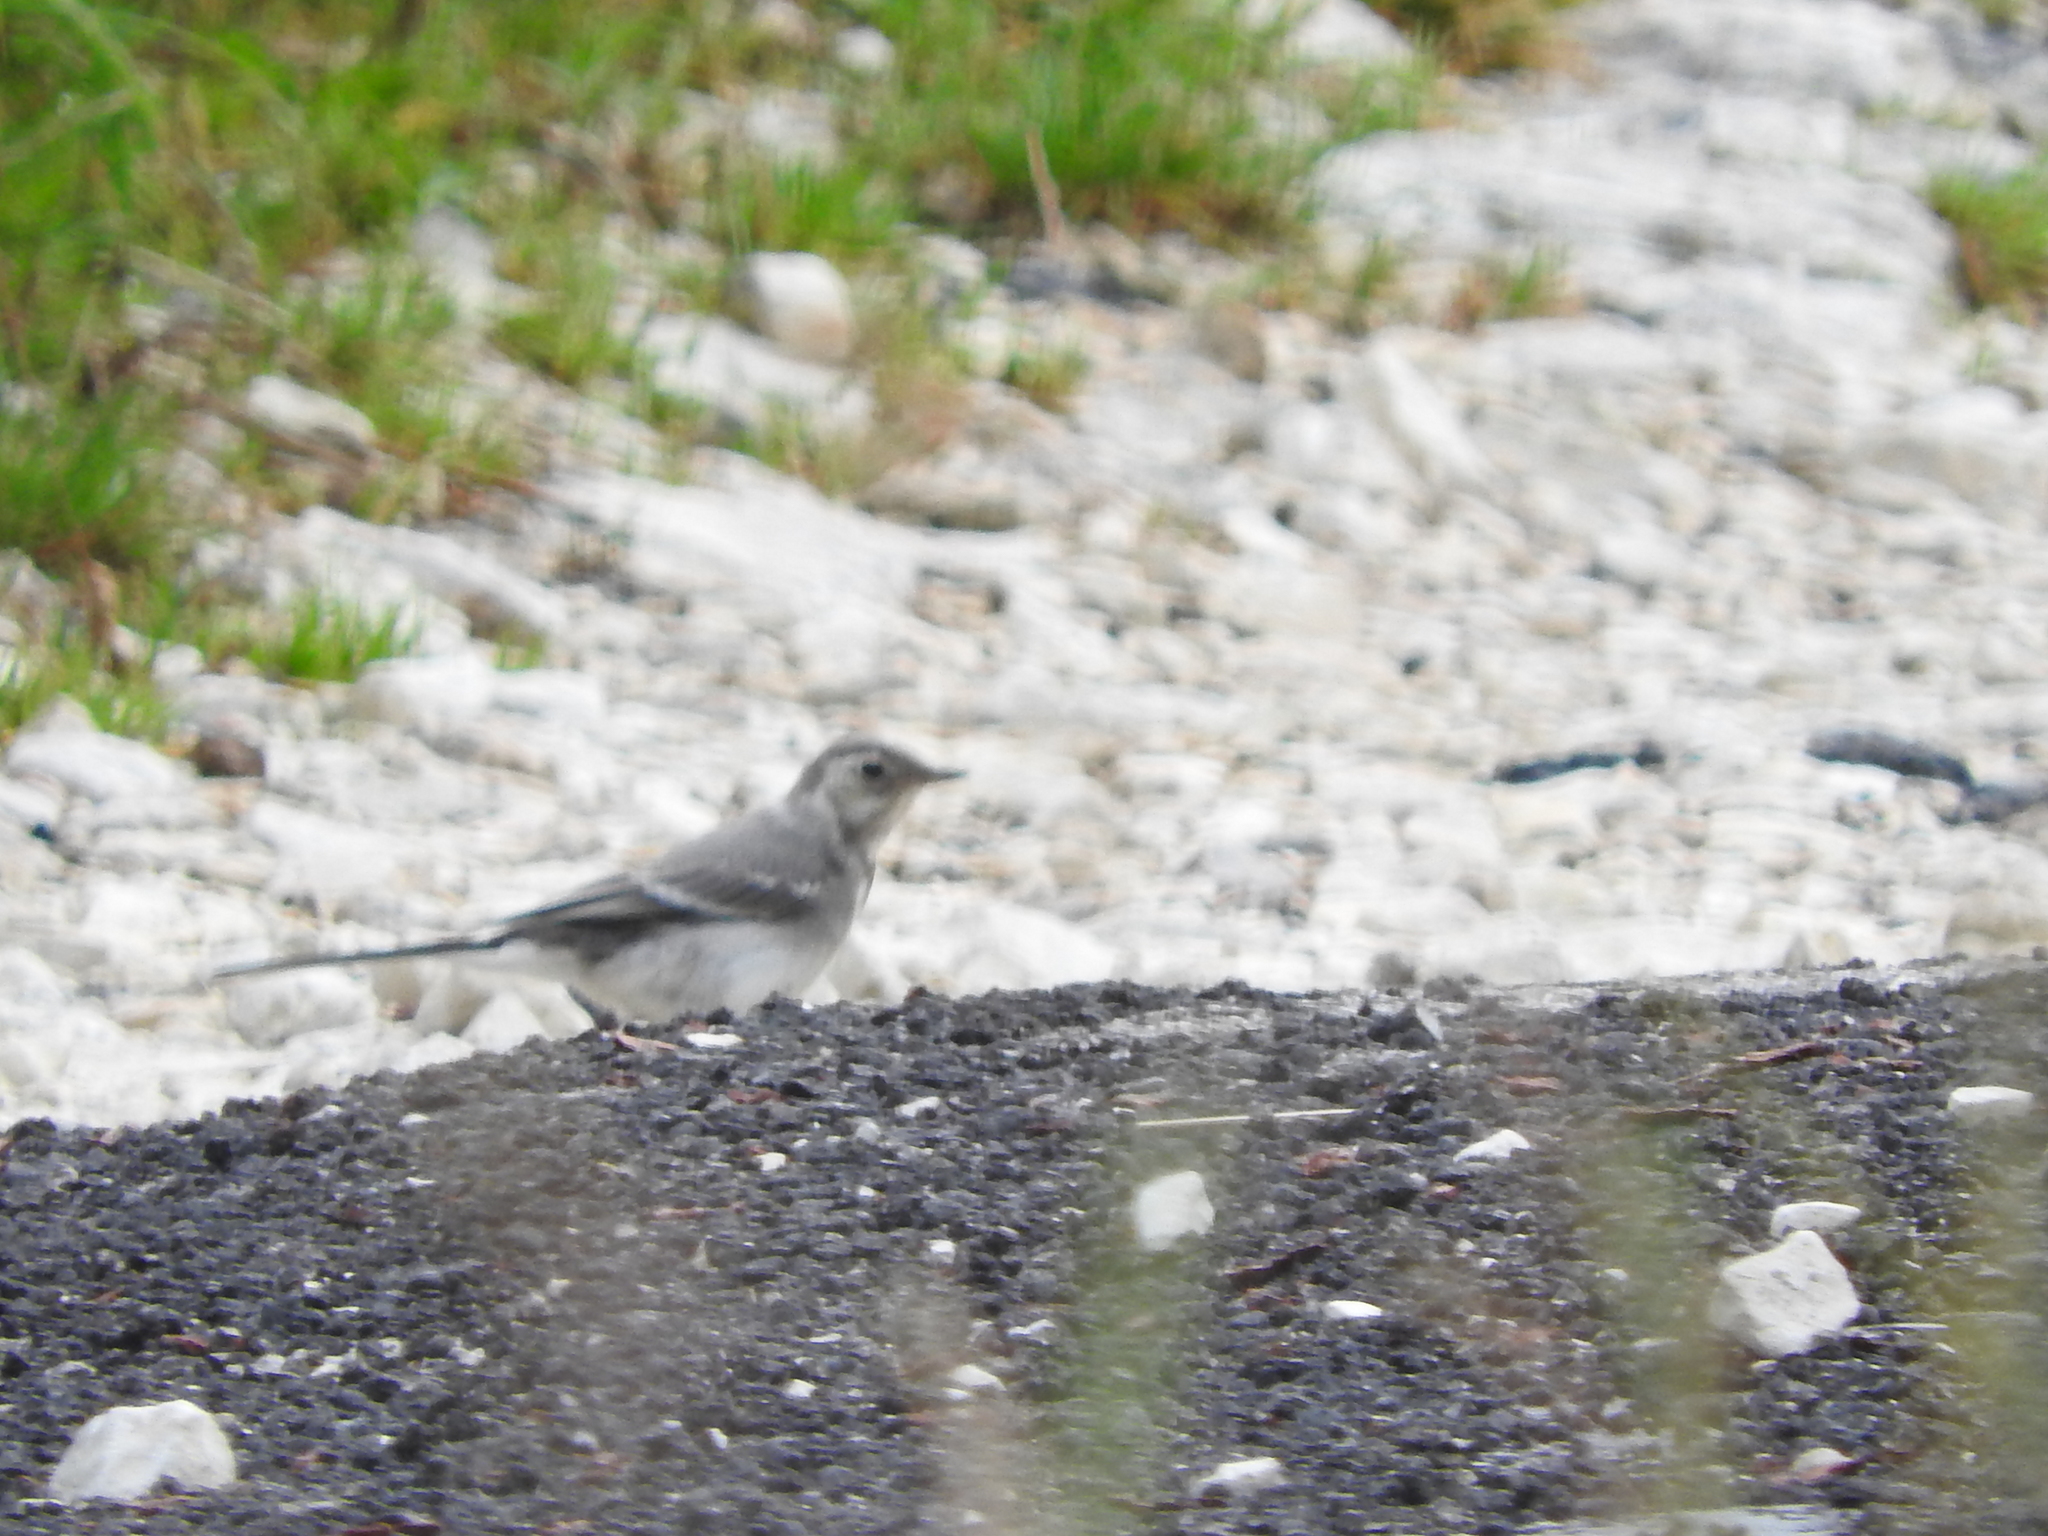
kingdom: Animalia
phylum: Chordata
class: Aves
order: Passeriformes
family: Motacillidae
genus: Motacilla
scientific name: Motacilla alba
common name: White wagtail
